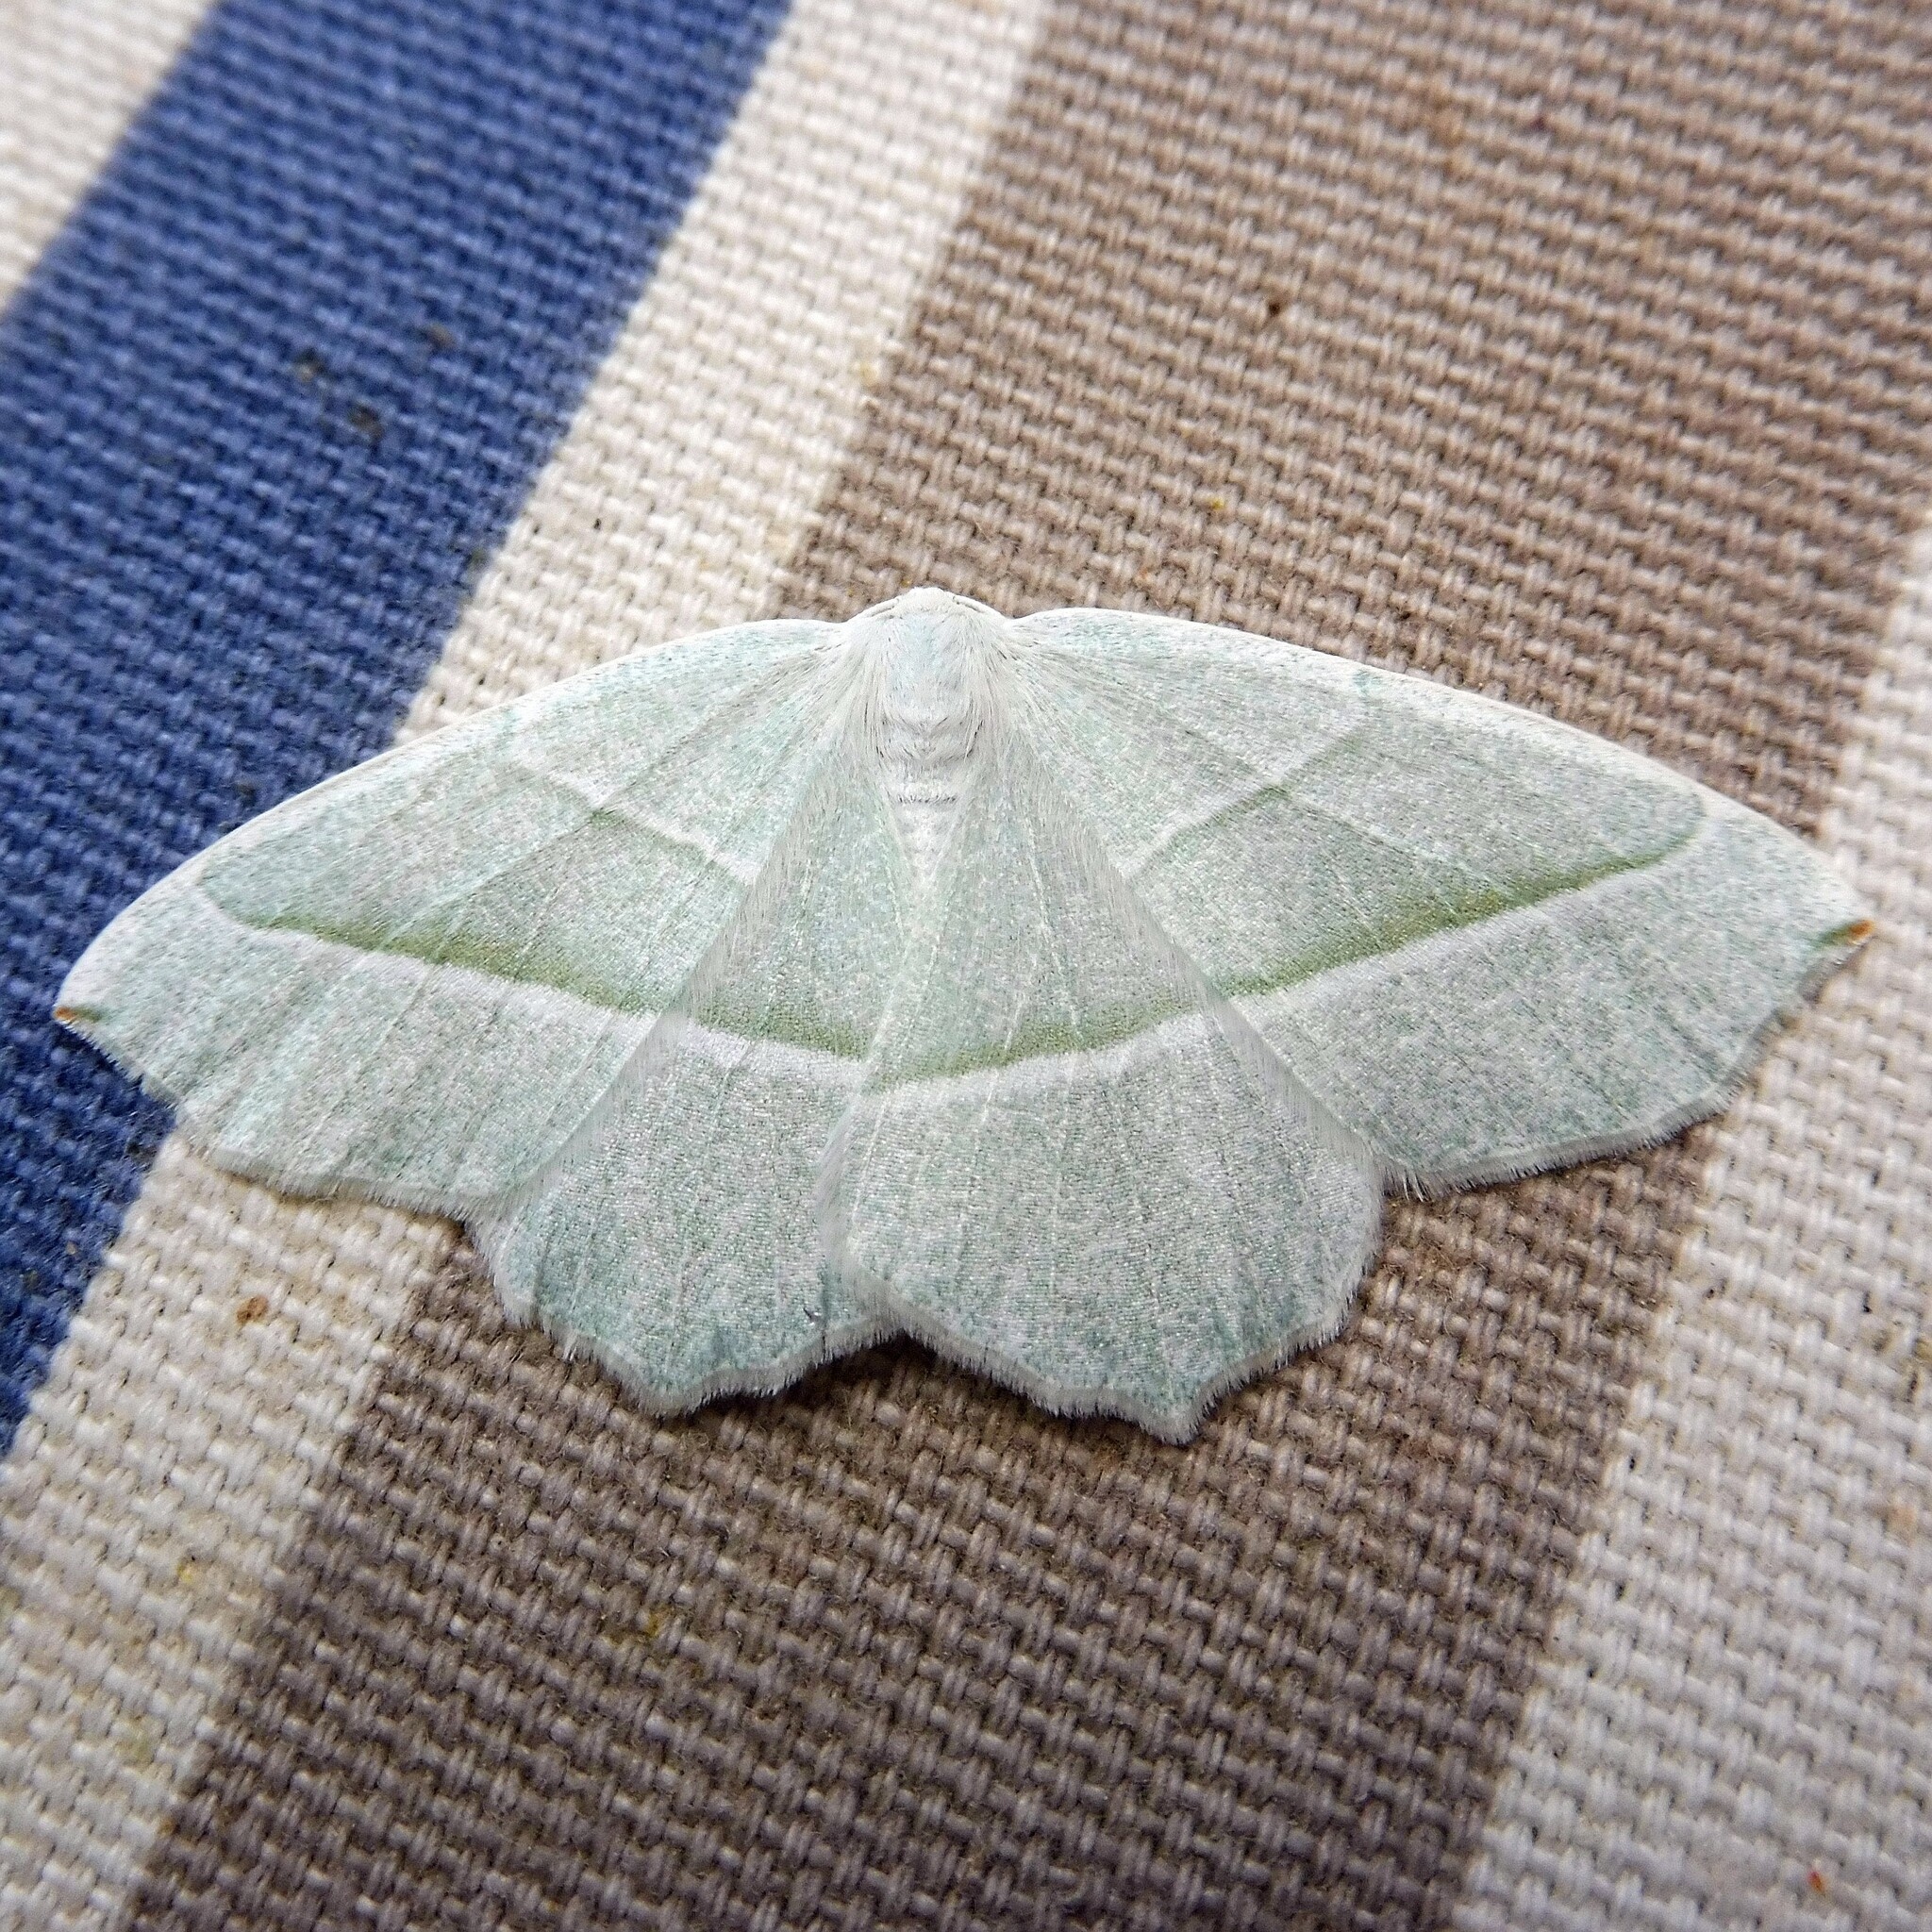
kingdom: Animalia
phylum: Arthropoda
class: Insecta
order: Lepidoptera
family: Geometridae
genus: Campaea
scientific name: Campaea margaritaria
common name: Light emerald
